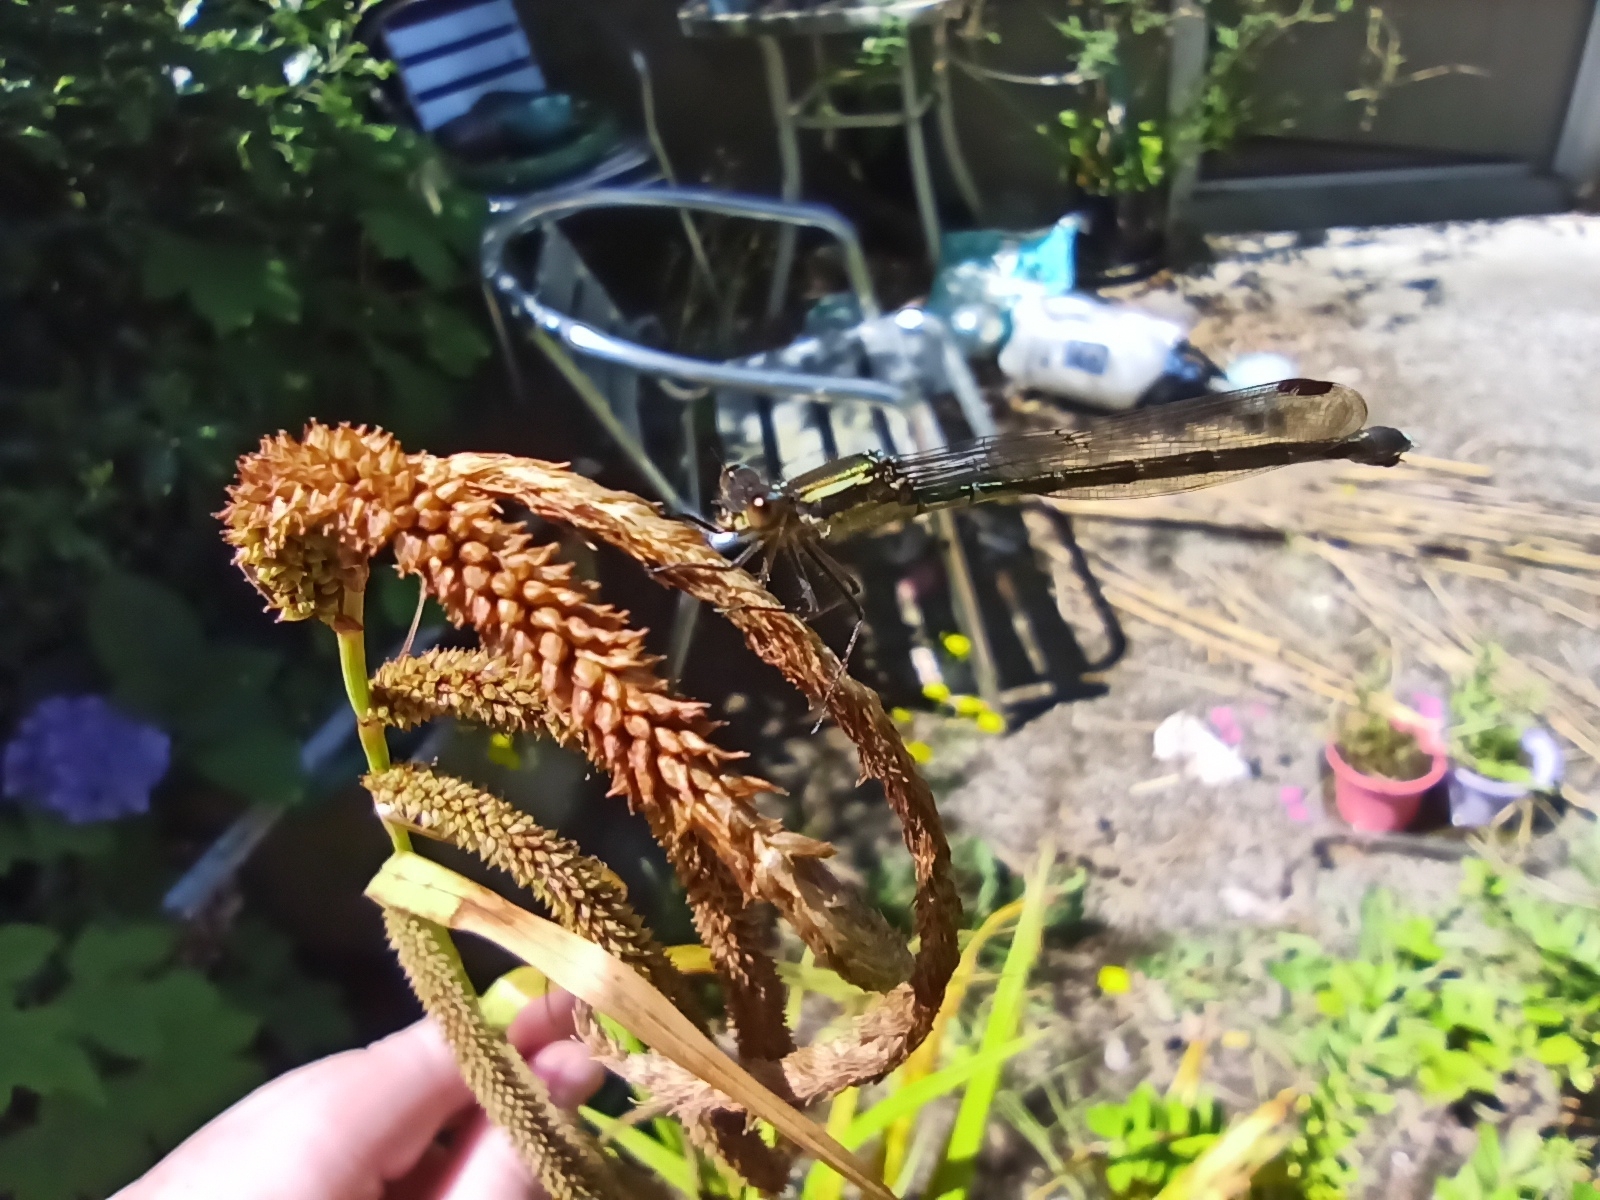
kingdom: Animalia
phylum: Arthropoda
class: Insecta
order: Odonata
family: Lestidae
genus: Austrolestes
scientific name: Austrolestes colensonis
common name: Blue damselfly
